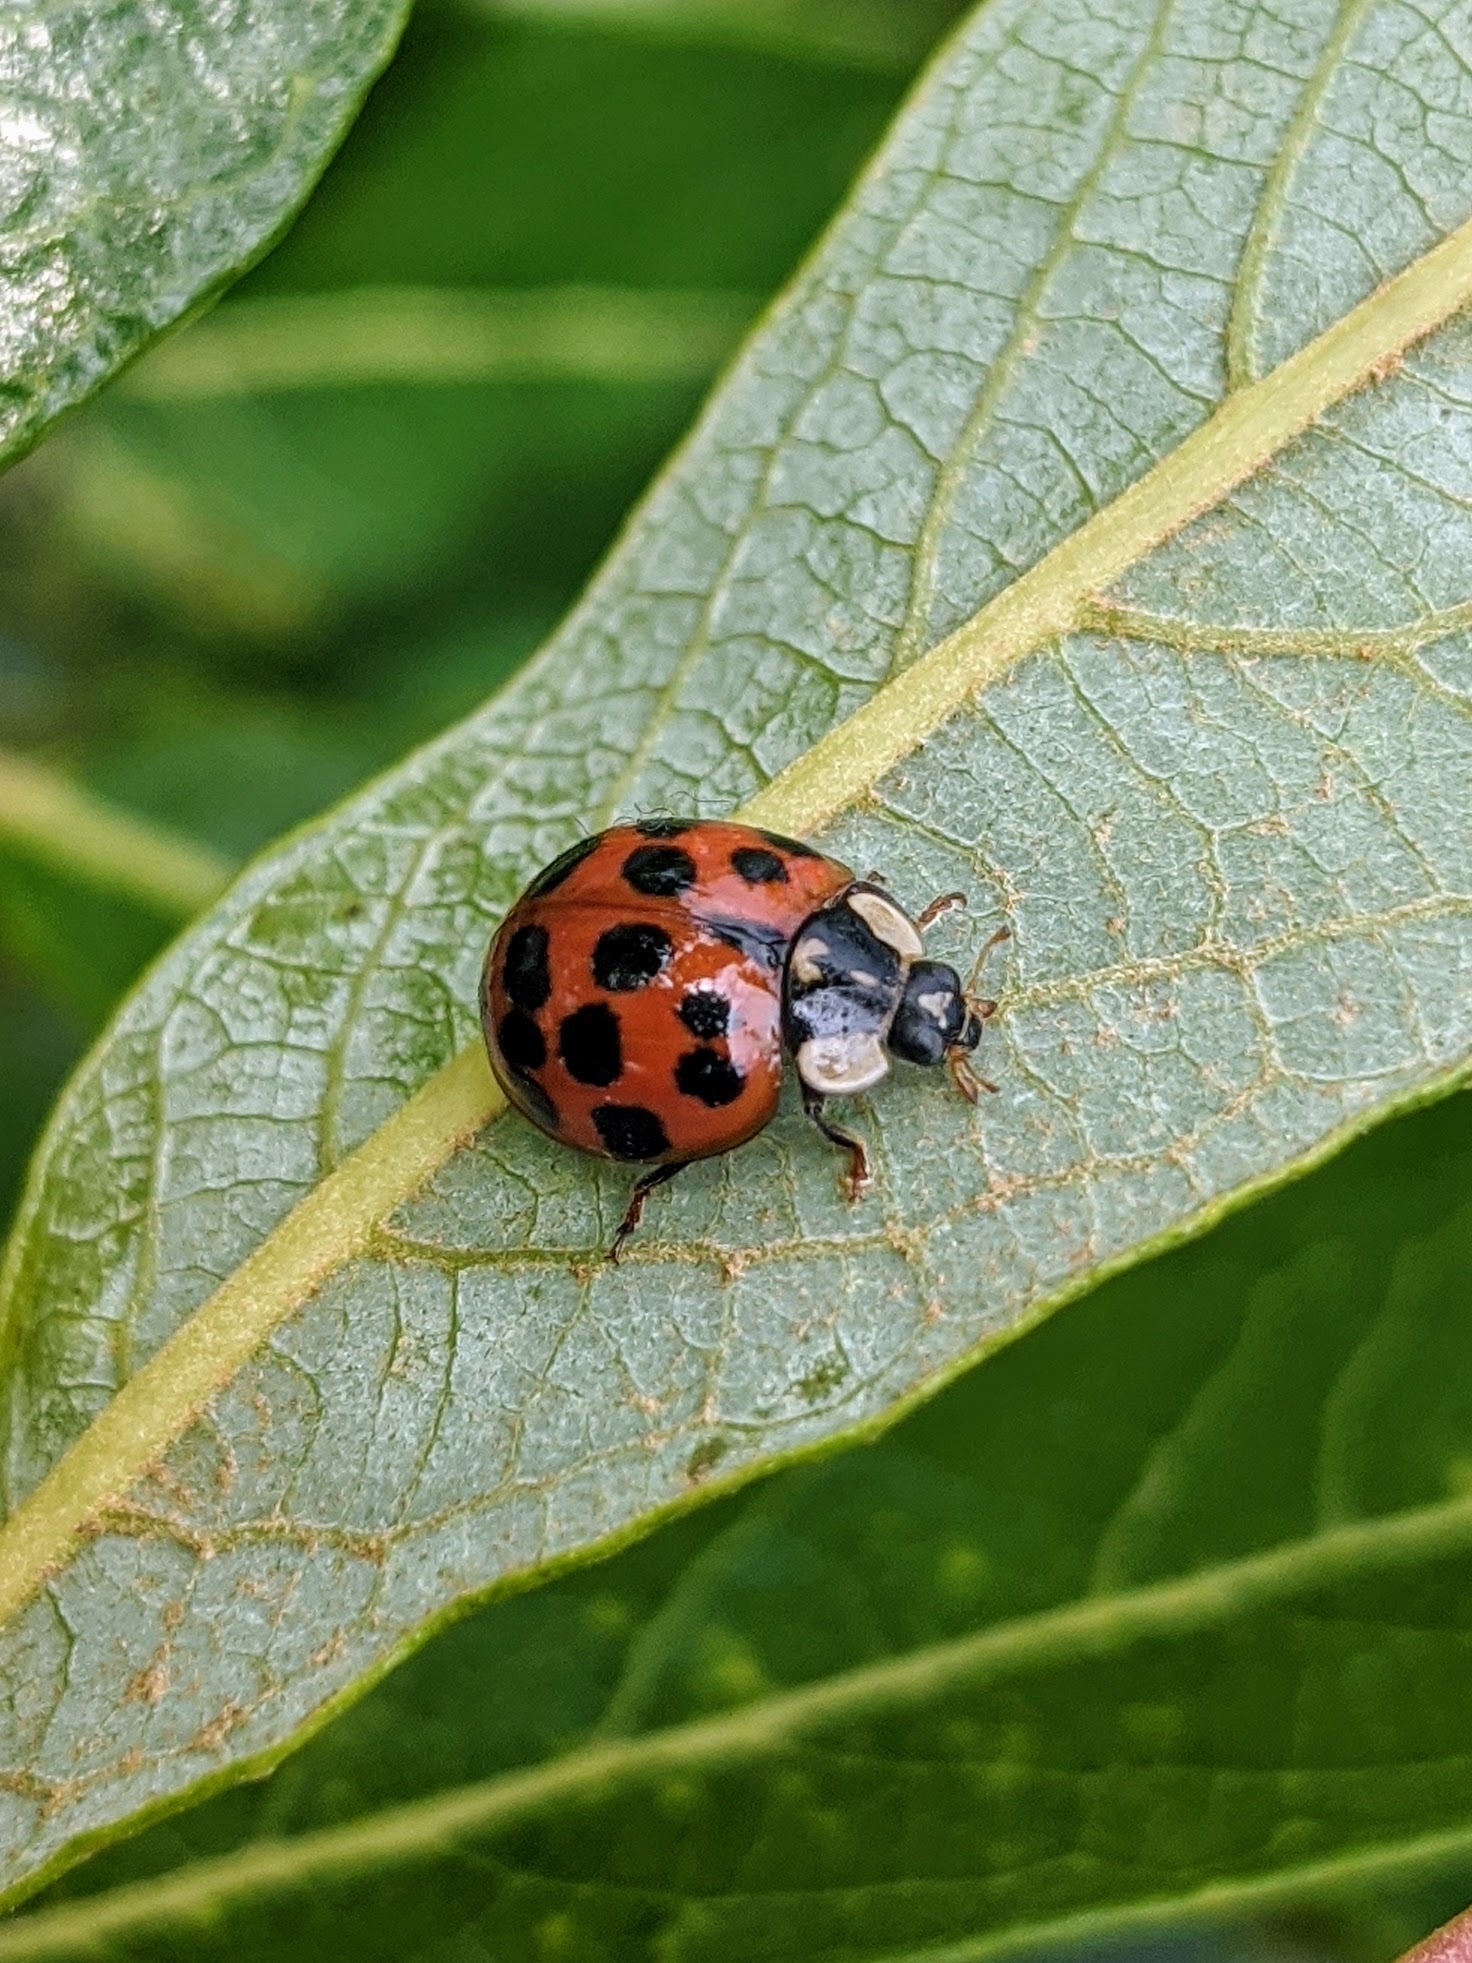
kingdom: Animalia
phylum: Arthropoda
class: Insecta
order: Coleoptera
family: Coccinellidae
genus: Harmonia
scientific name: Harmonia axyridis
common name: Harlequin ladybird
